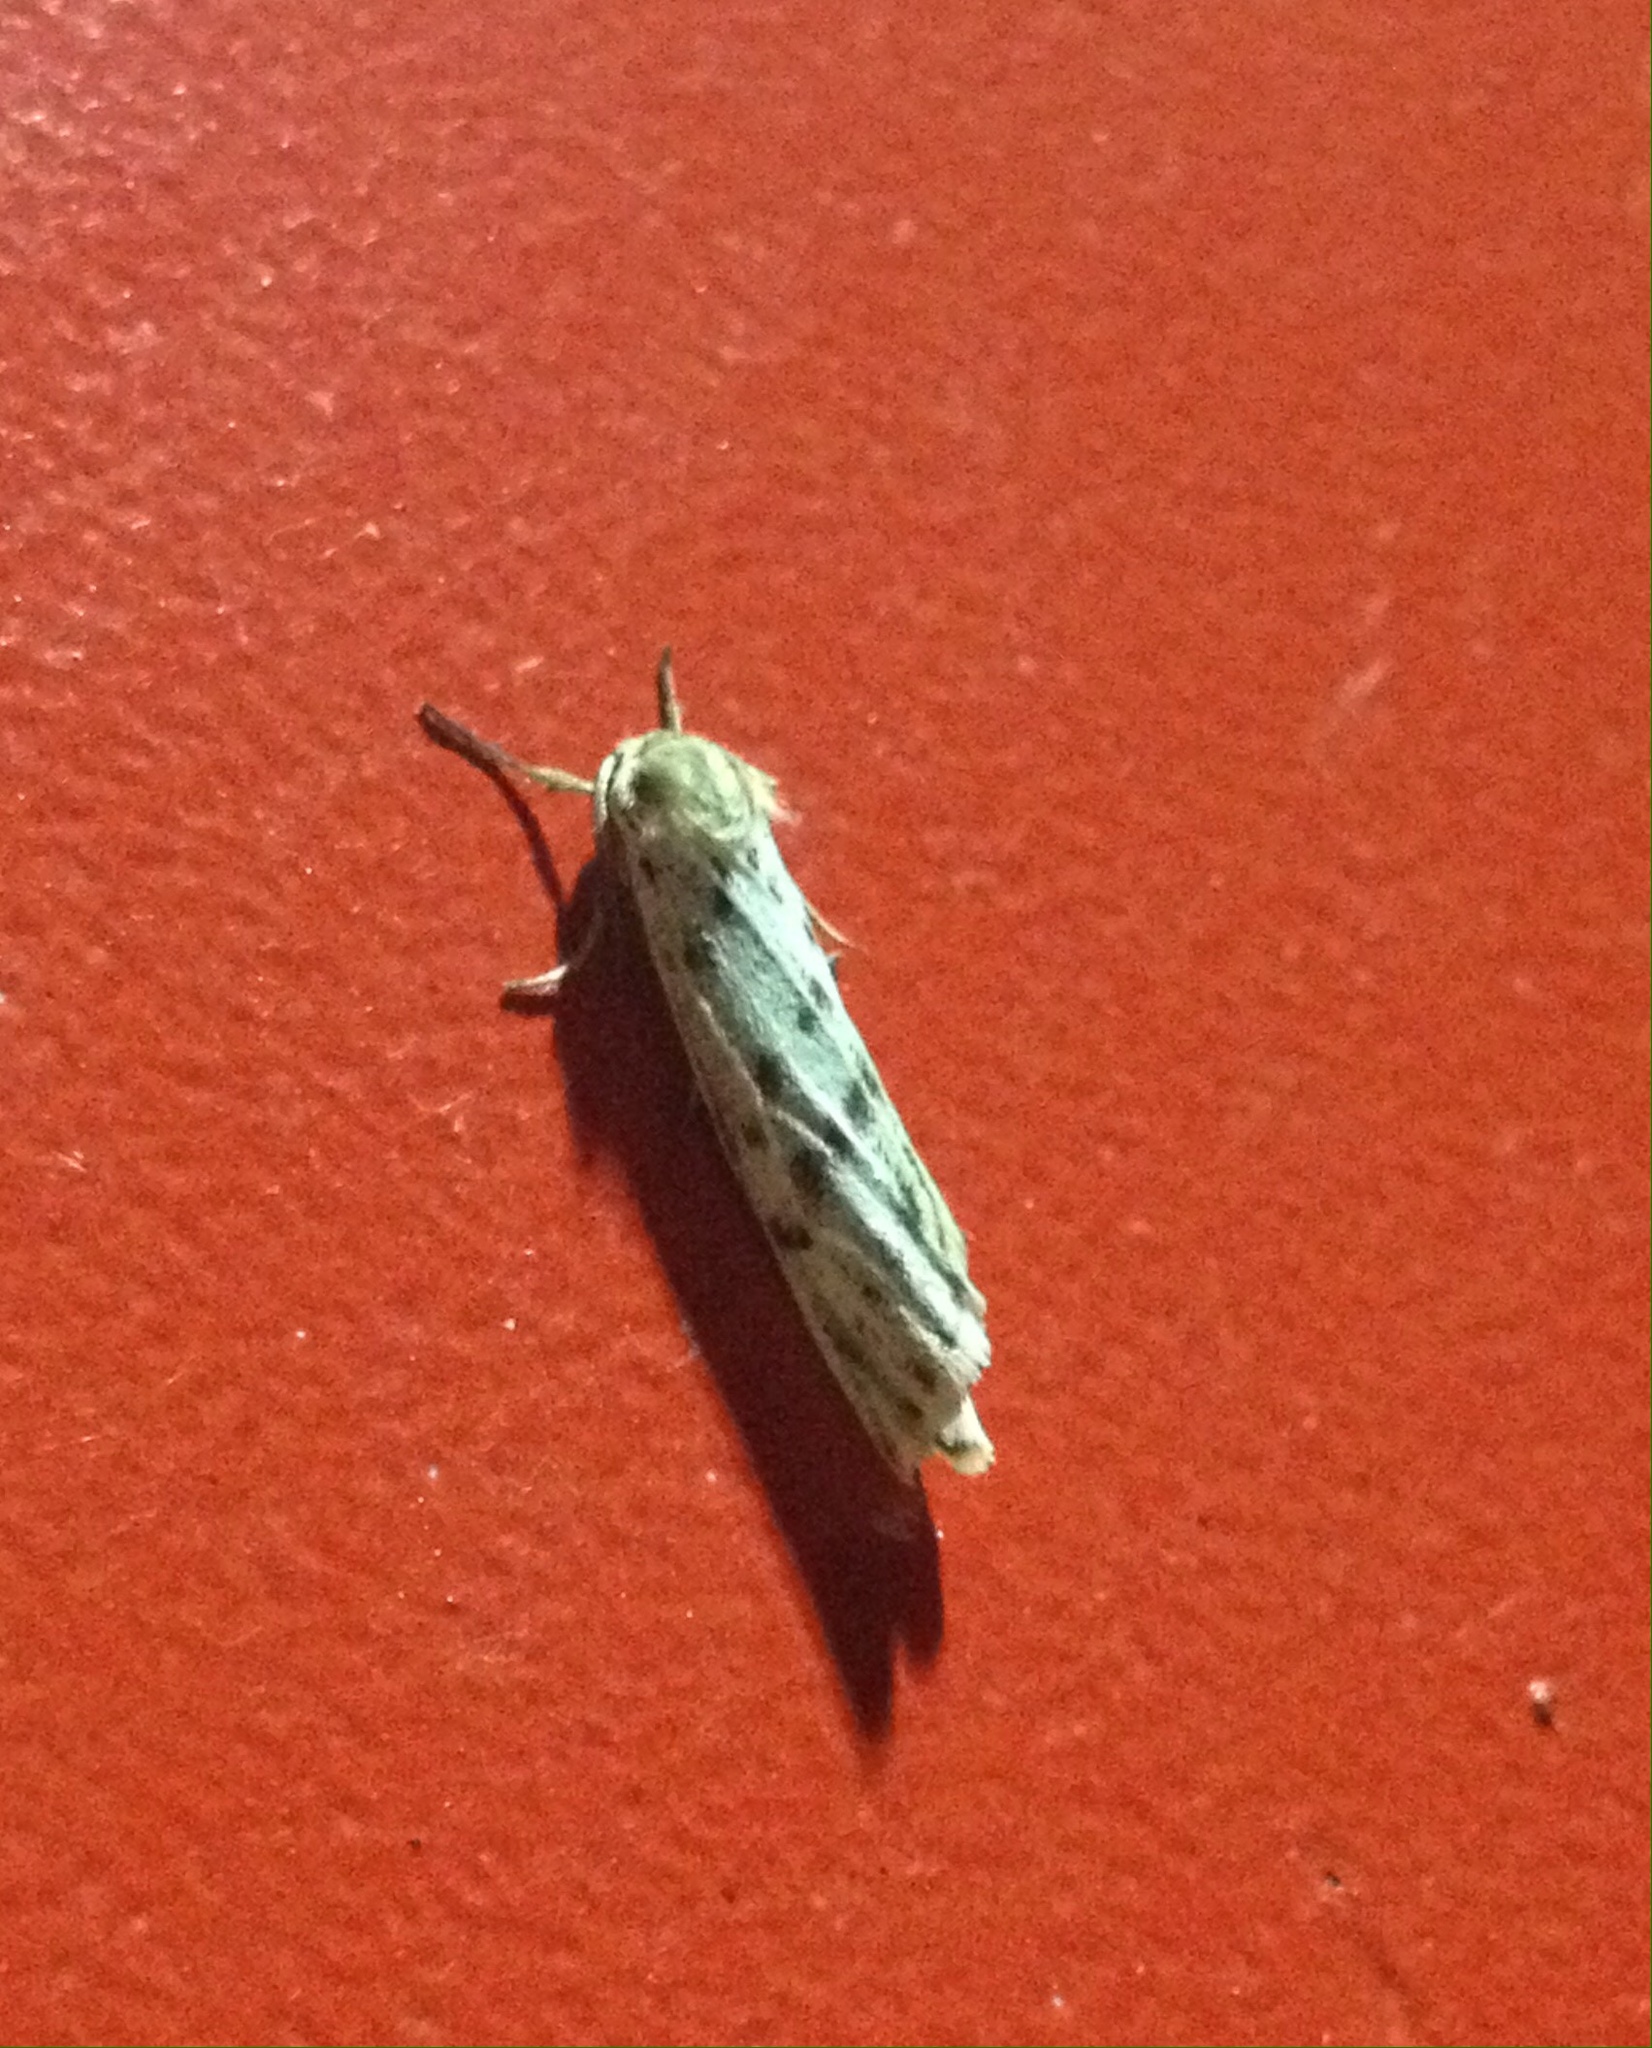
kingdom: Animalia
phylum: Arthropoda
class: Insecta
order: Lepidoptera
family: Erebidae
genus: Coscinia
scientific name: Coscinia cribraria
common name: Speckled footman
